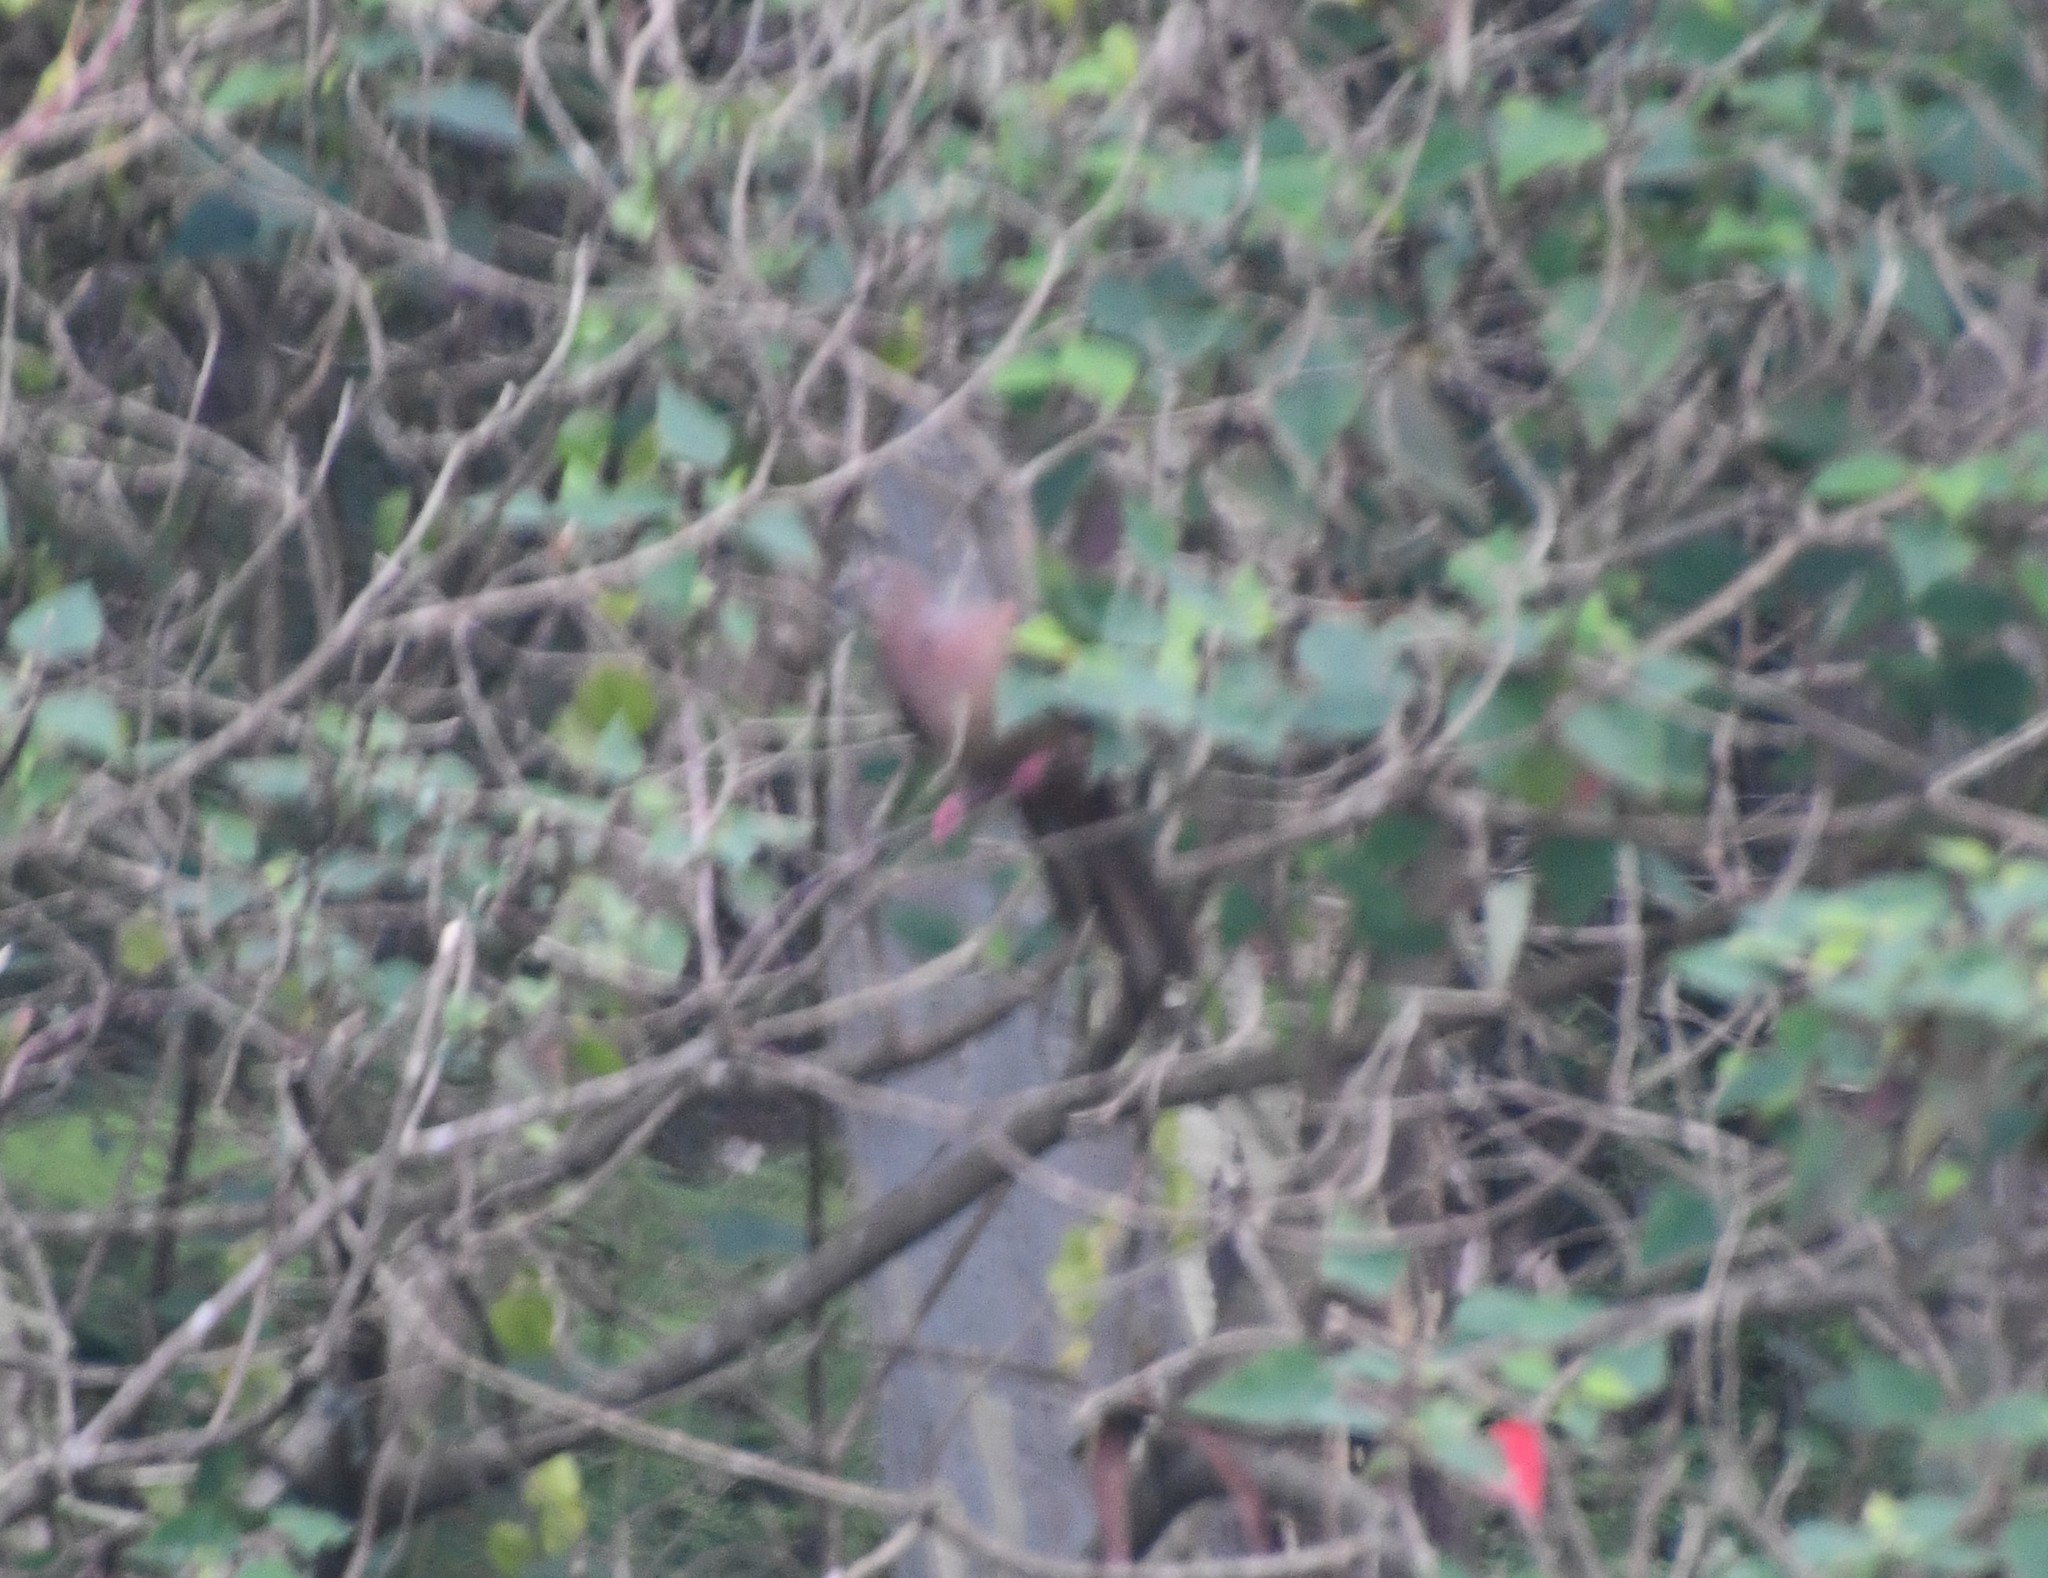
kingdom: Animalia
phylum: Chordata
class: Aves
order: Columbiformes
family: Columbidae
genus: Macropygia
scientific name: Macropygia phasianella
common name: Brown cuckoo-dove
